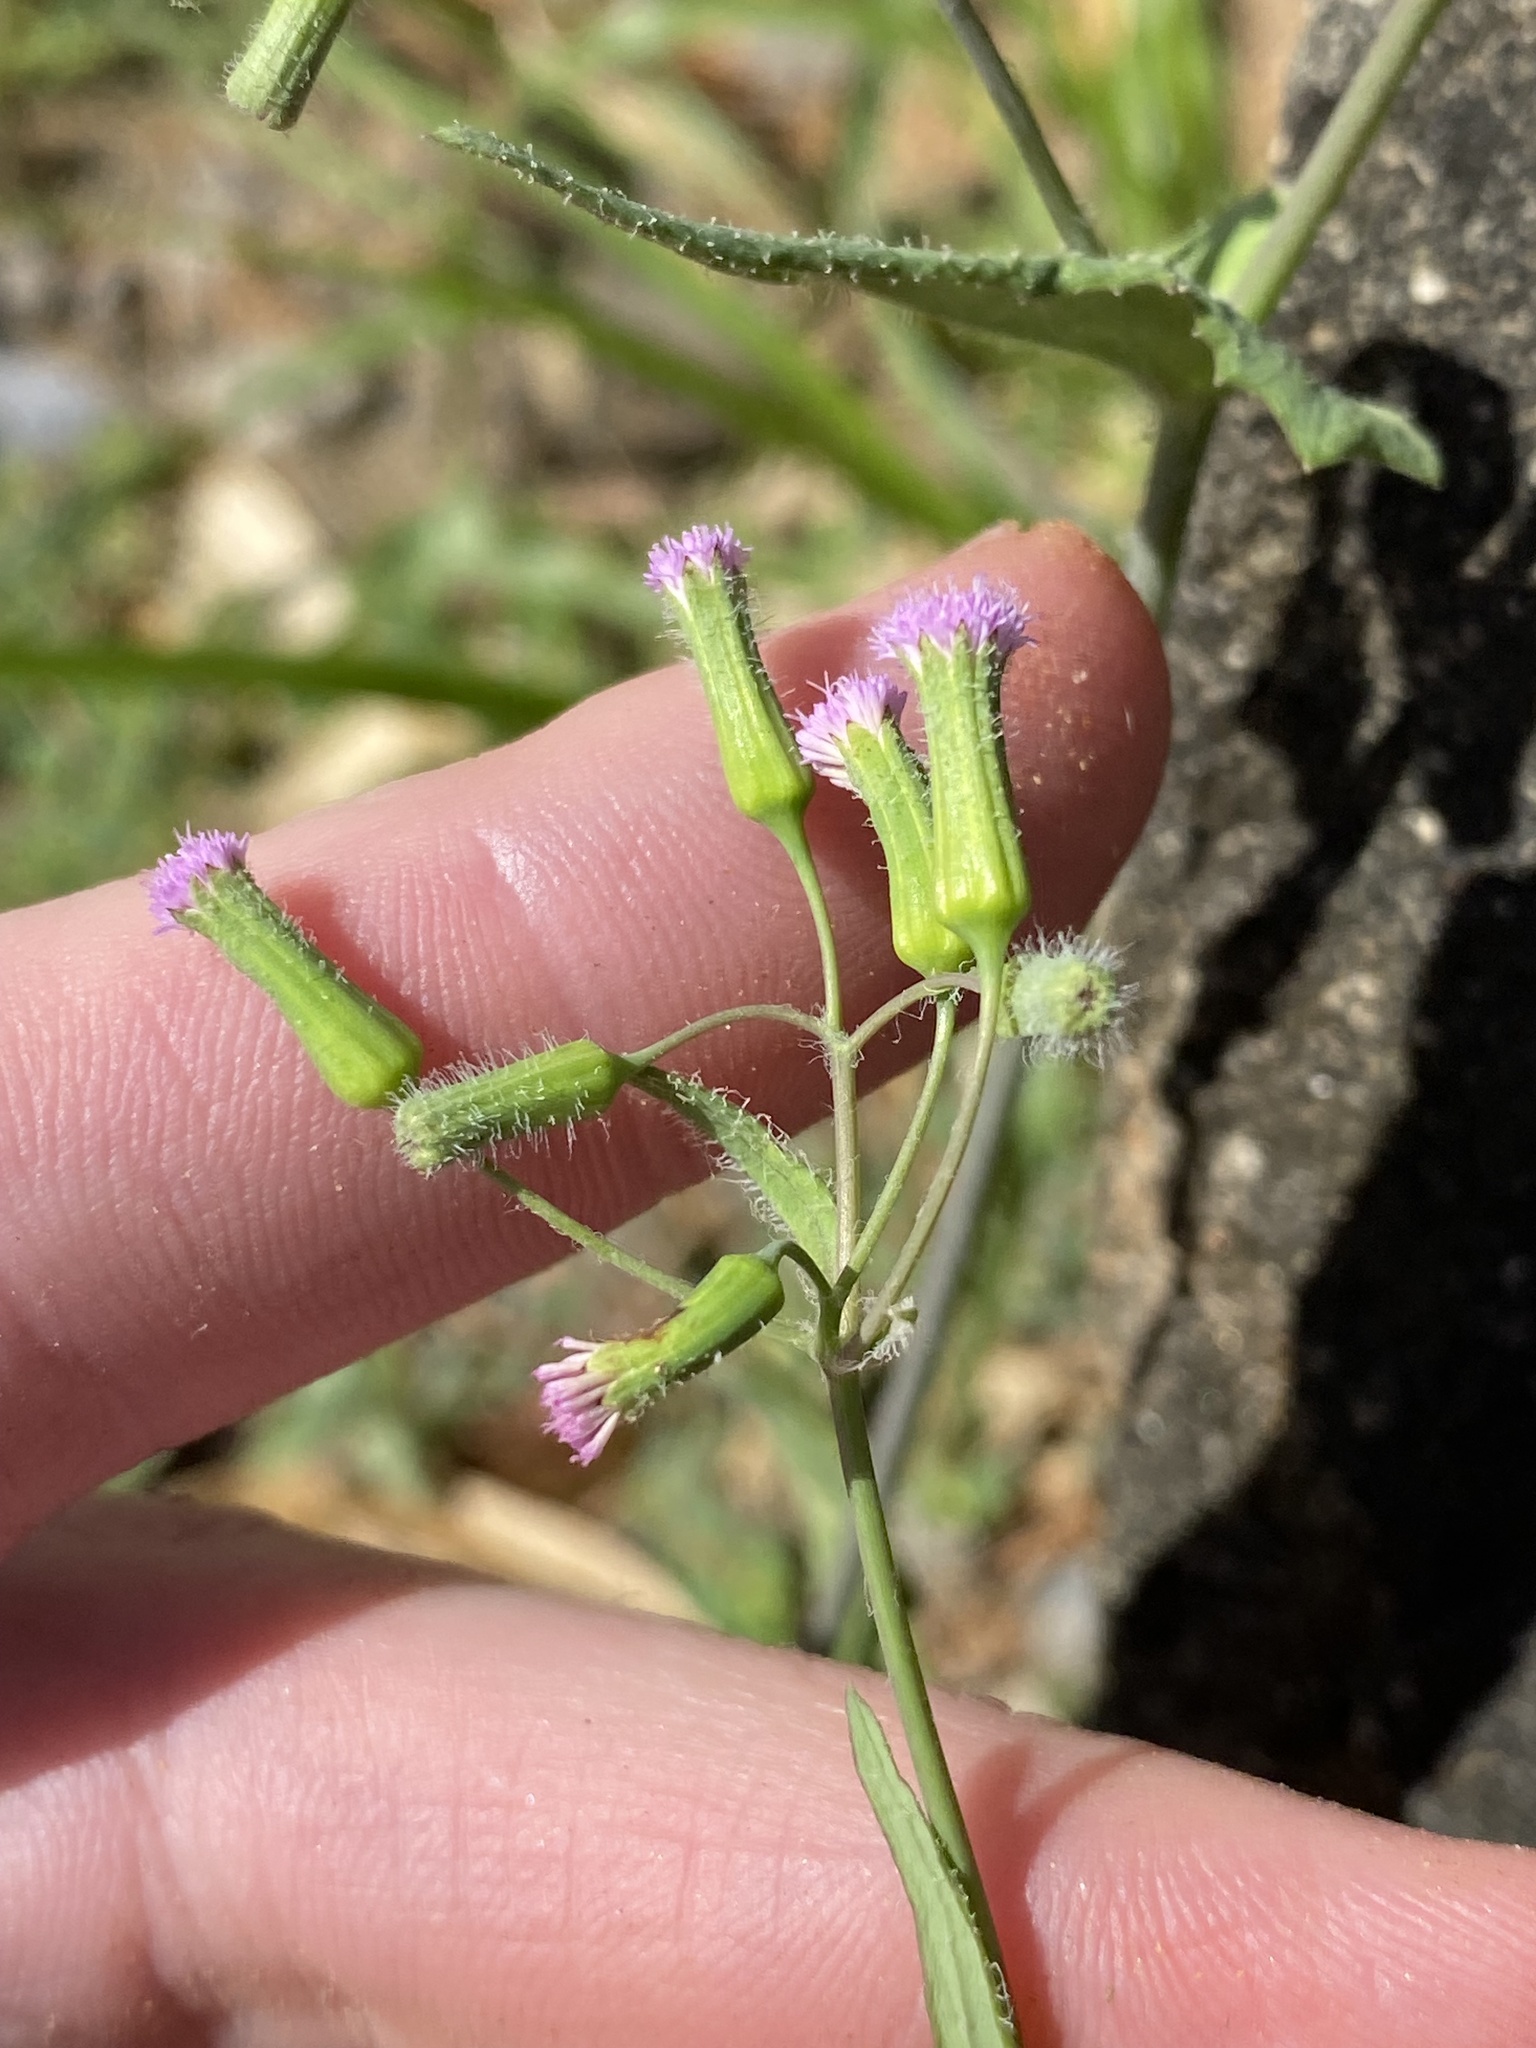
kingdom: Plantae
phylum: Tracheophyta
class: Magnoliopsida
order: Asterales
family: Asteraceae
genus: Emilia
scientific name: Emilia sonchifolia
